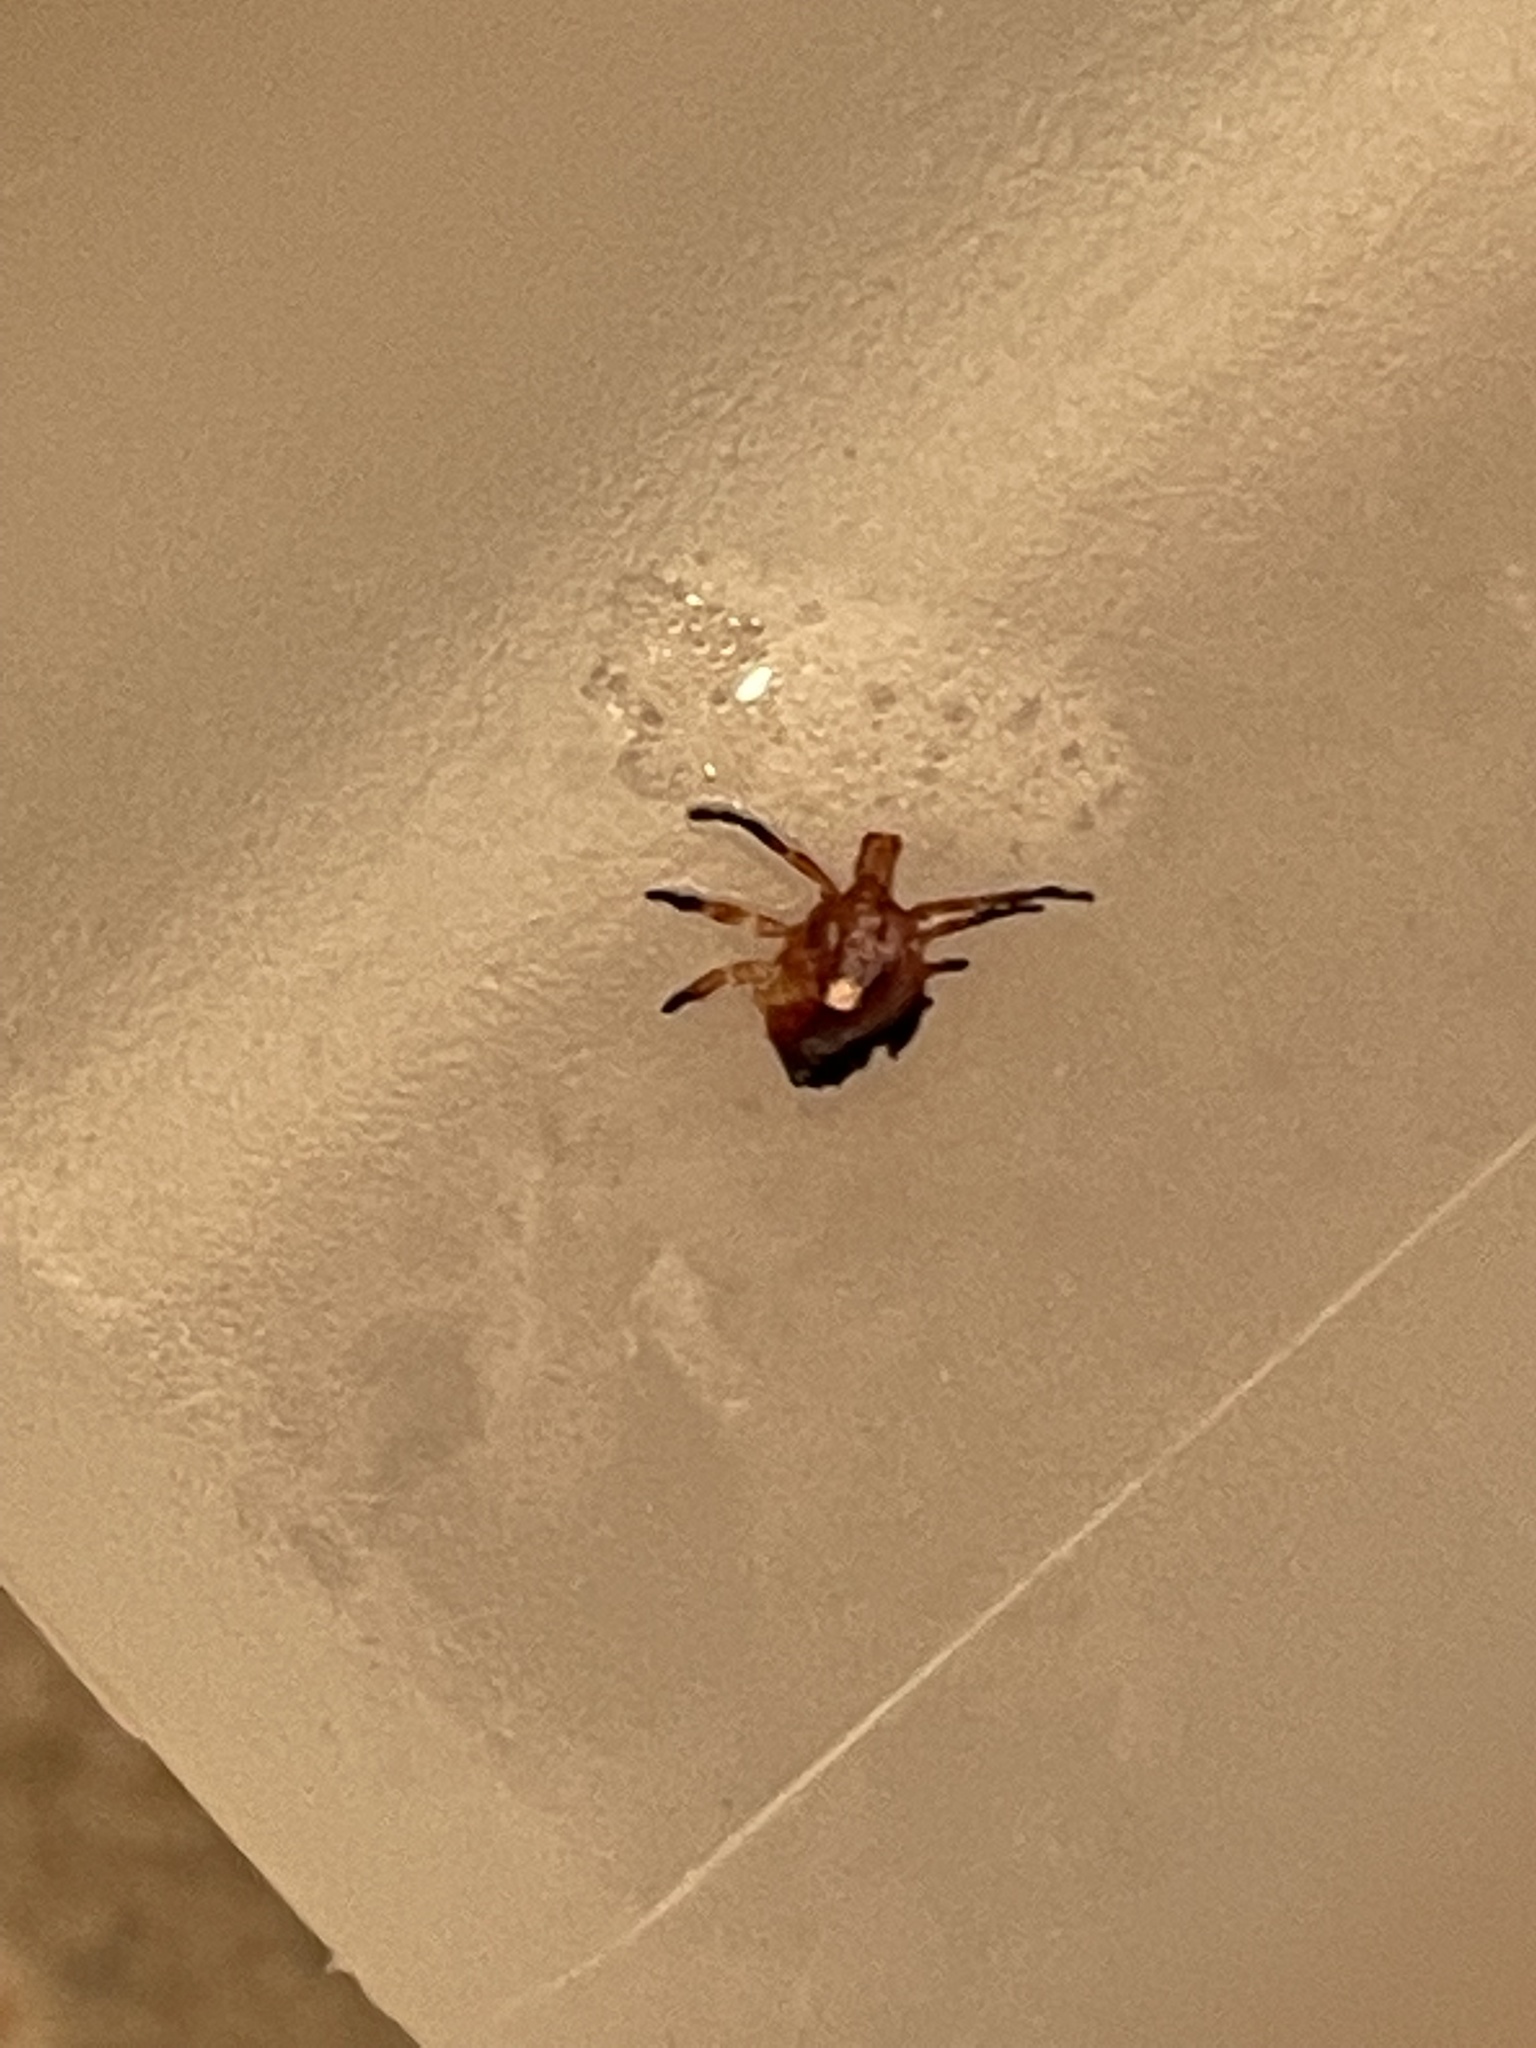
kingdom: Animalia
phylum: Arthropoda
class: Arachnida
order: Ixodida
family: Ixodidae
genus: Amblyomma
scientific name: Amblyomma americanum
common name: Lone star tick
